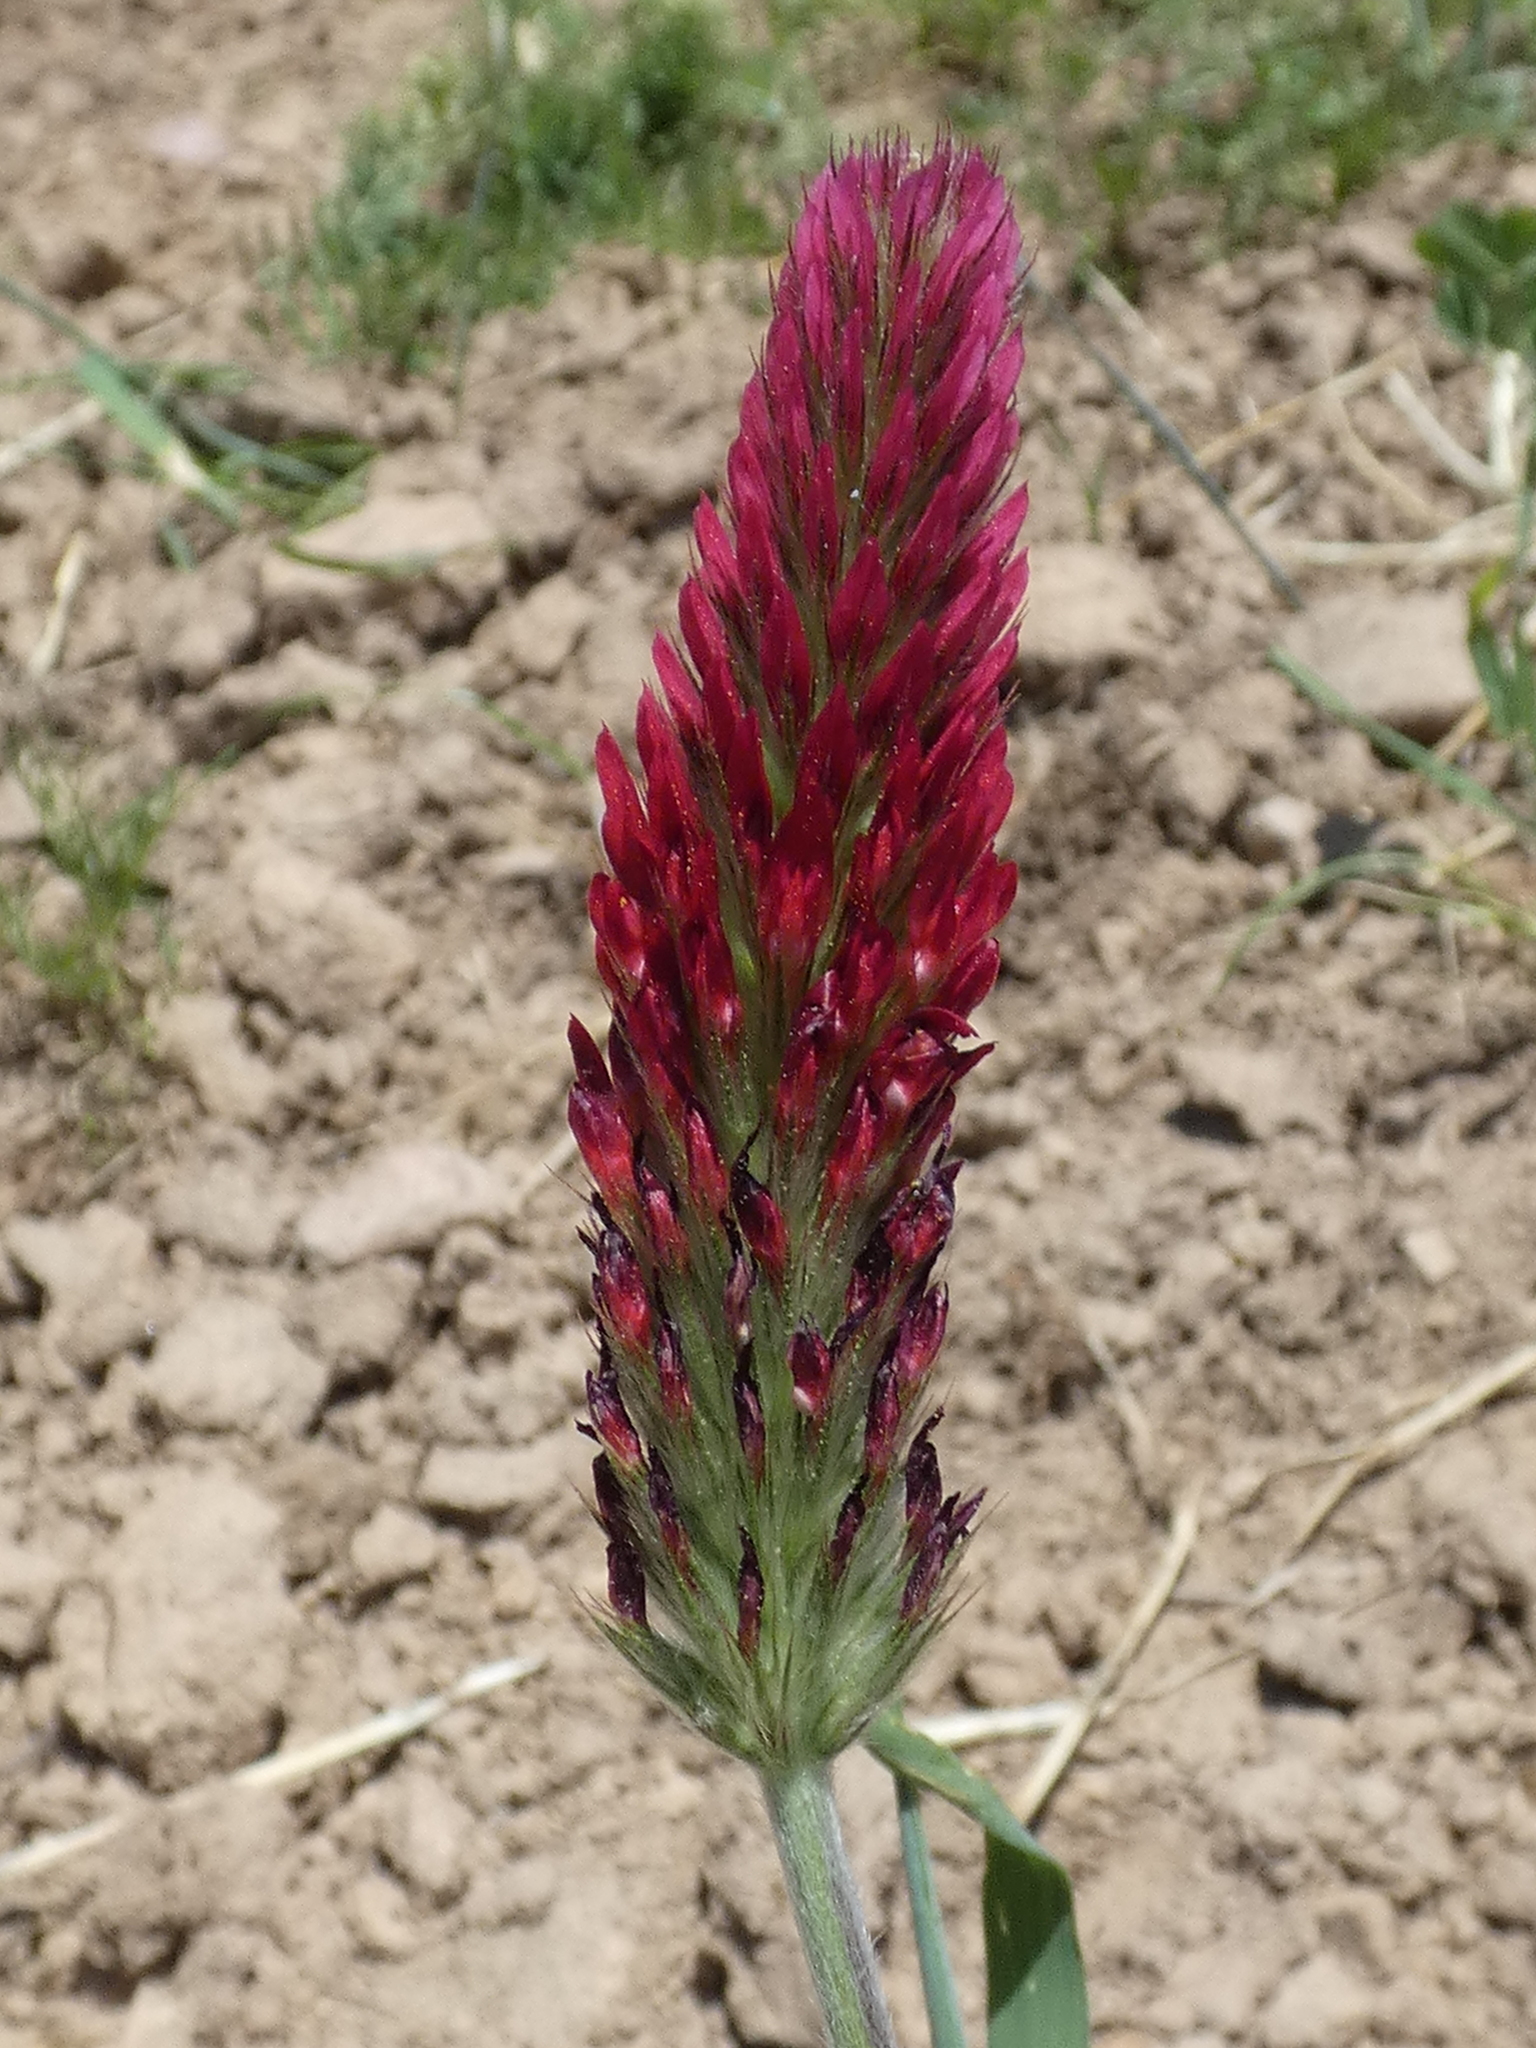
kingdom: Plantae
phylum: Tracheophyta
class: Magnoliopsida
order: Fabales
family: Fabaceae
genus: Trifolium
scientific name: Trifolium incarnatum
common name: Crimson clover
